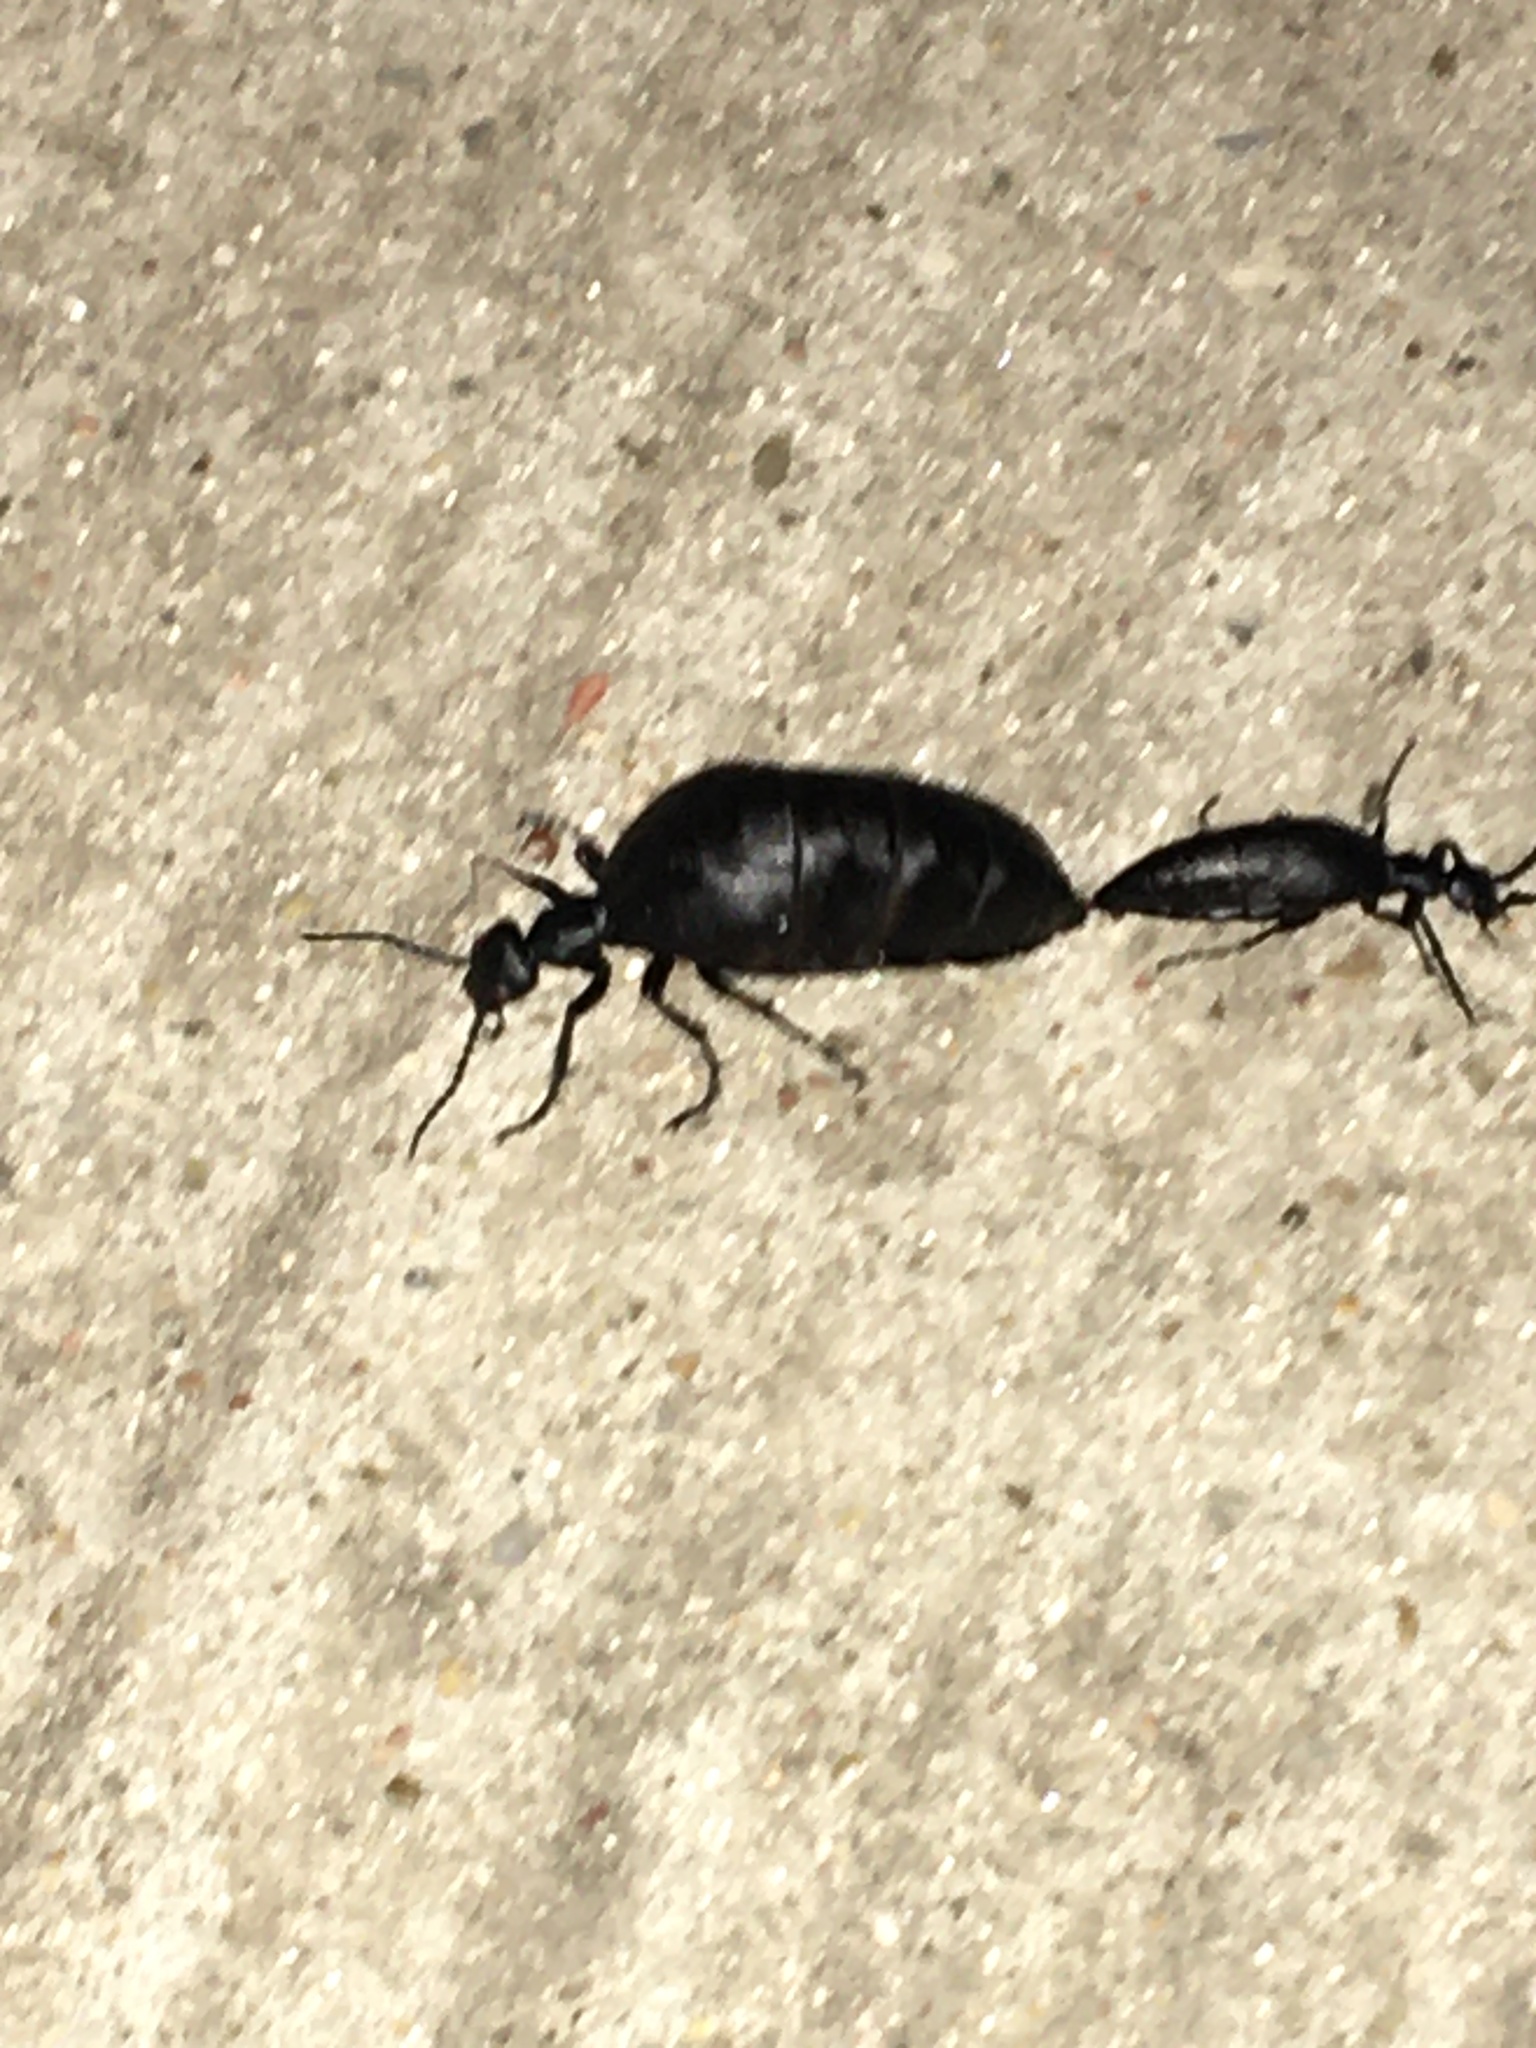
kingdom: Animalia
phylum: Arthropoda
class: Insecta
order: Coleoptera
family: Meloidae
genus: Meloe
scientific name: Meloe americanus
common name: Buttercup oil beetle
